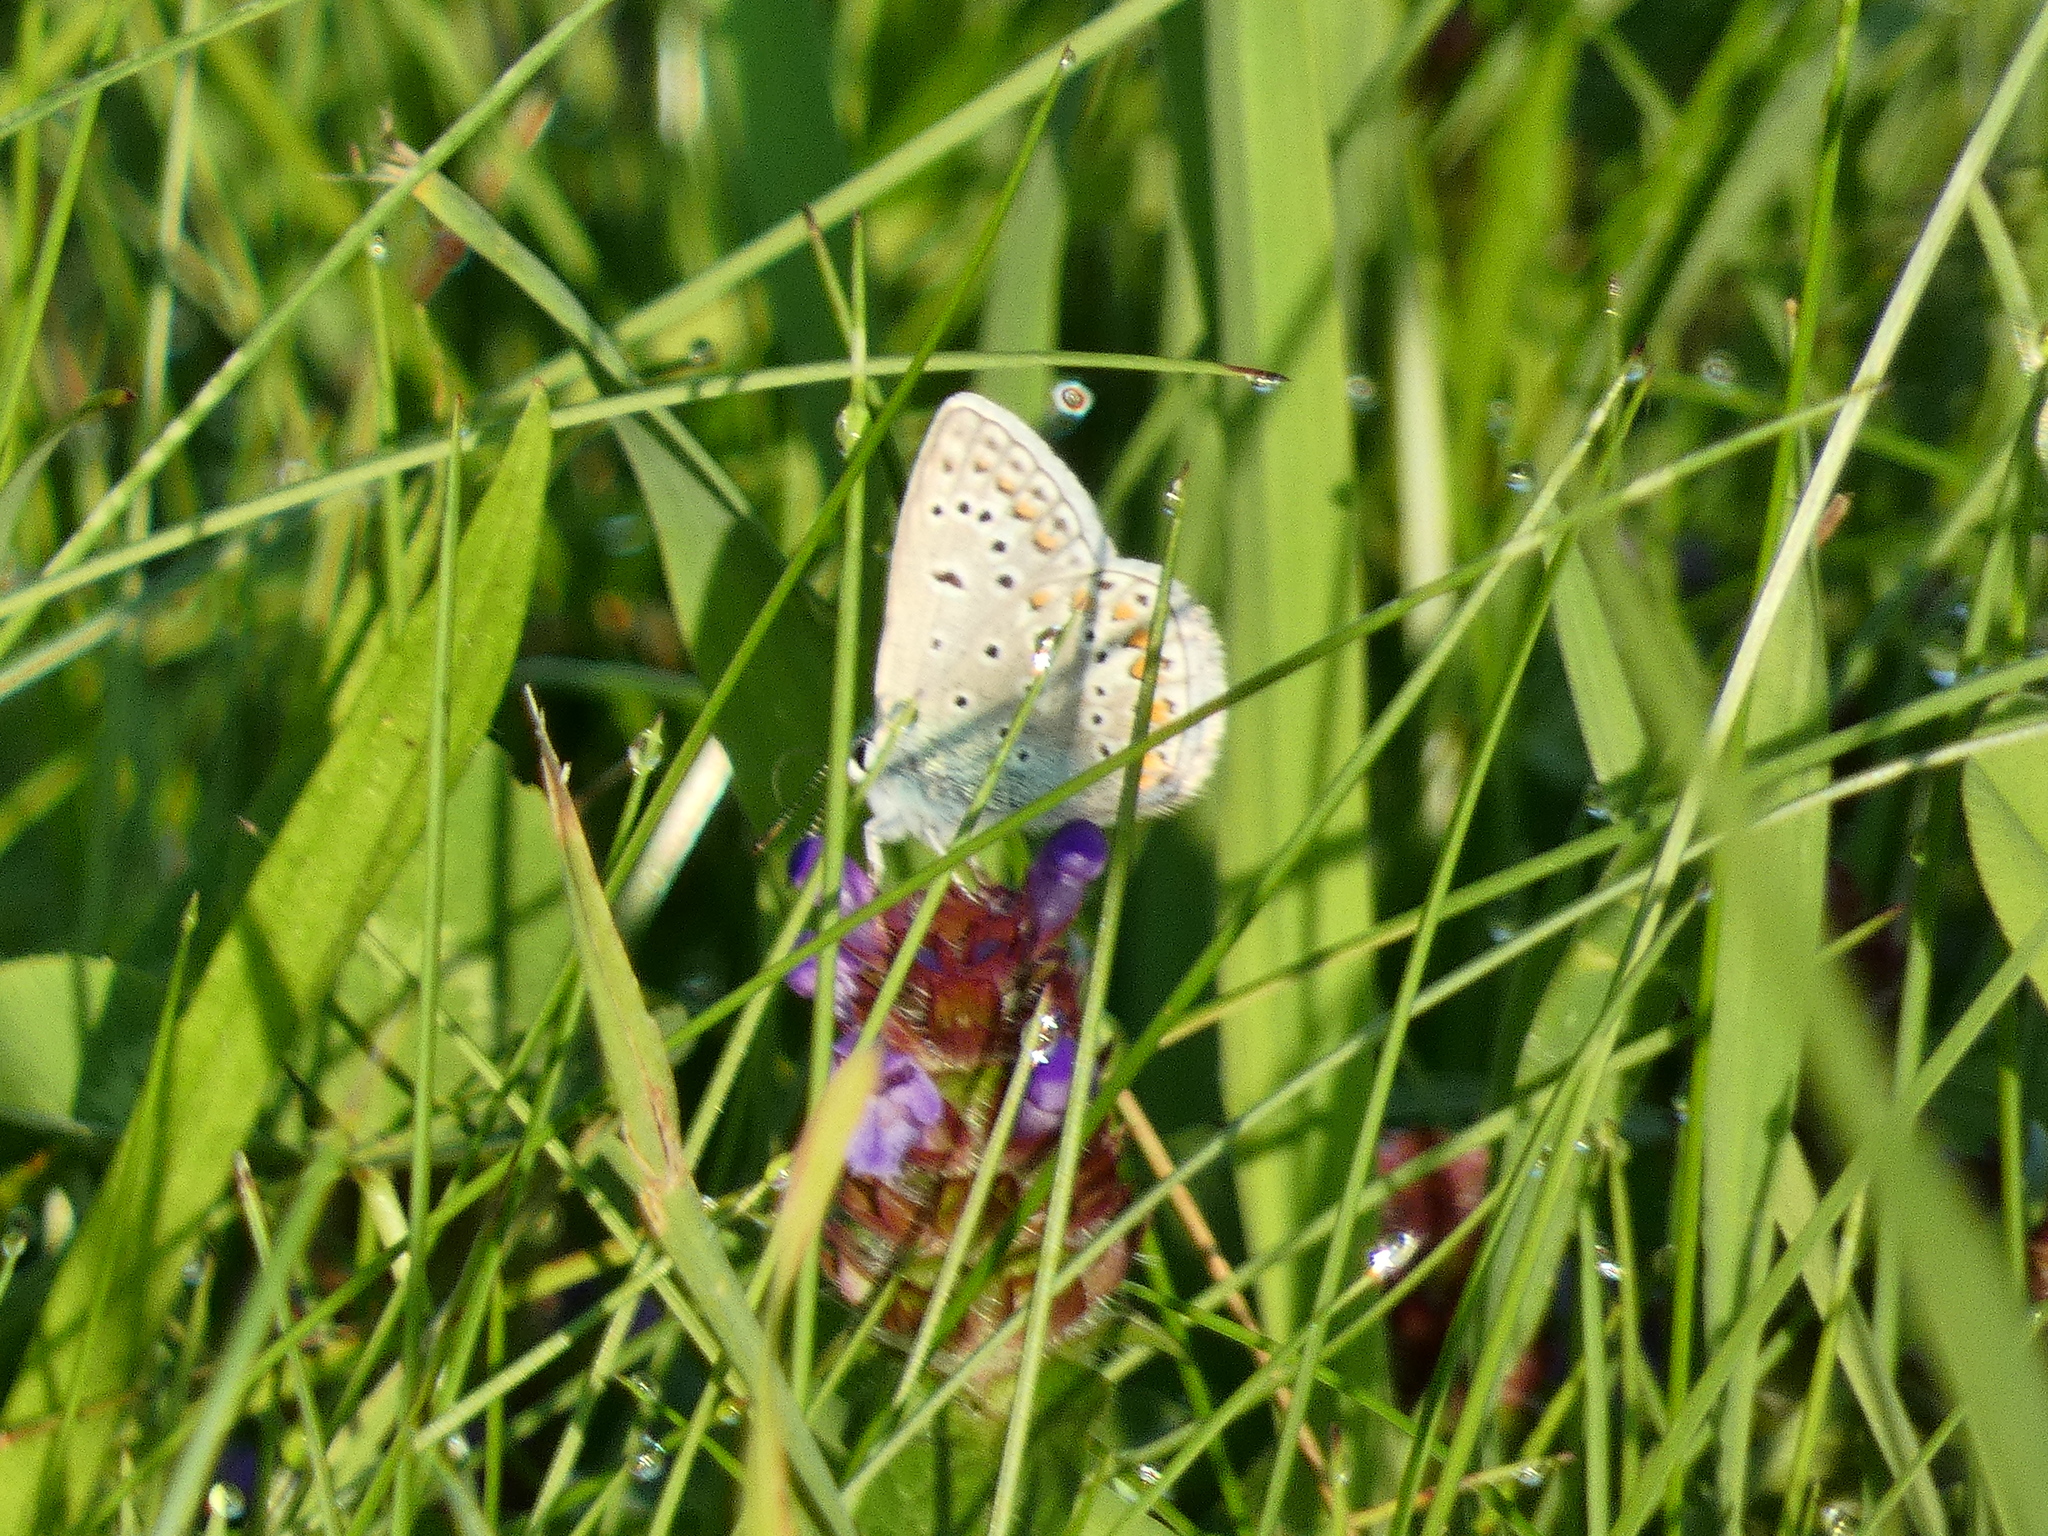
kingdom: Animalia
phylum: Arthropoda
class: Insecta
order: Lepidoptera
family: Lycaenidae
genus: Polyommatus
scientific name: Polyommatus icarus
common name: Common blue
